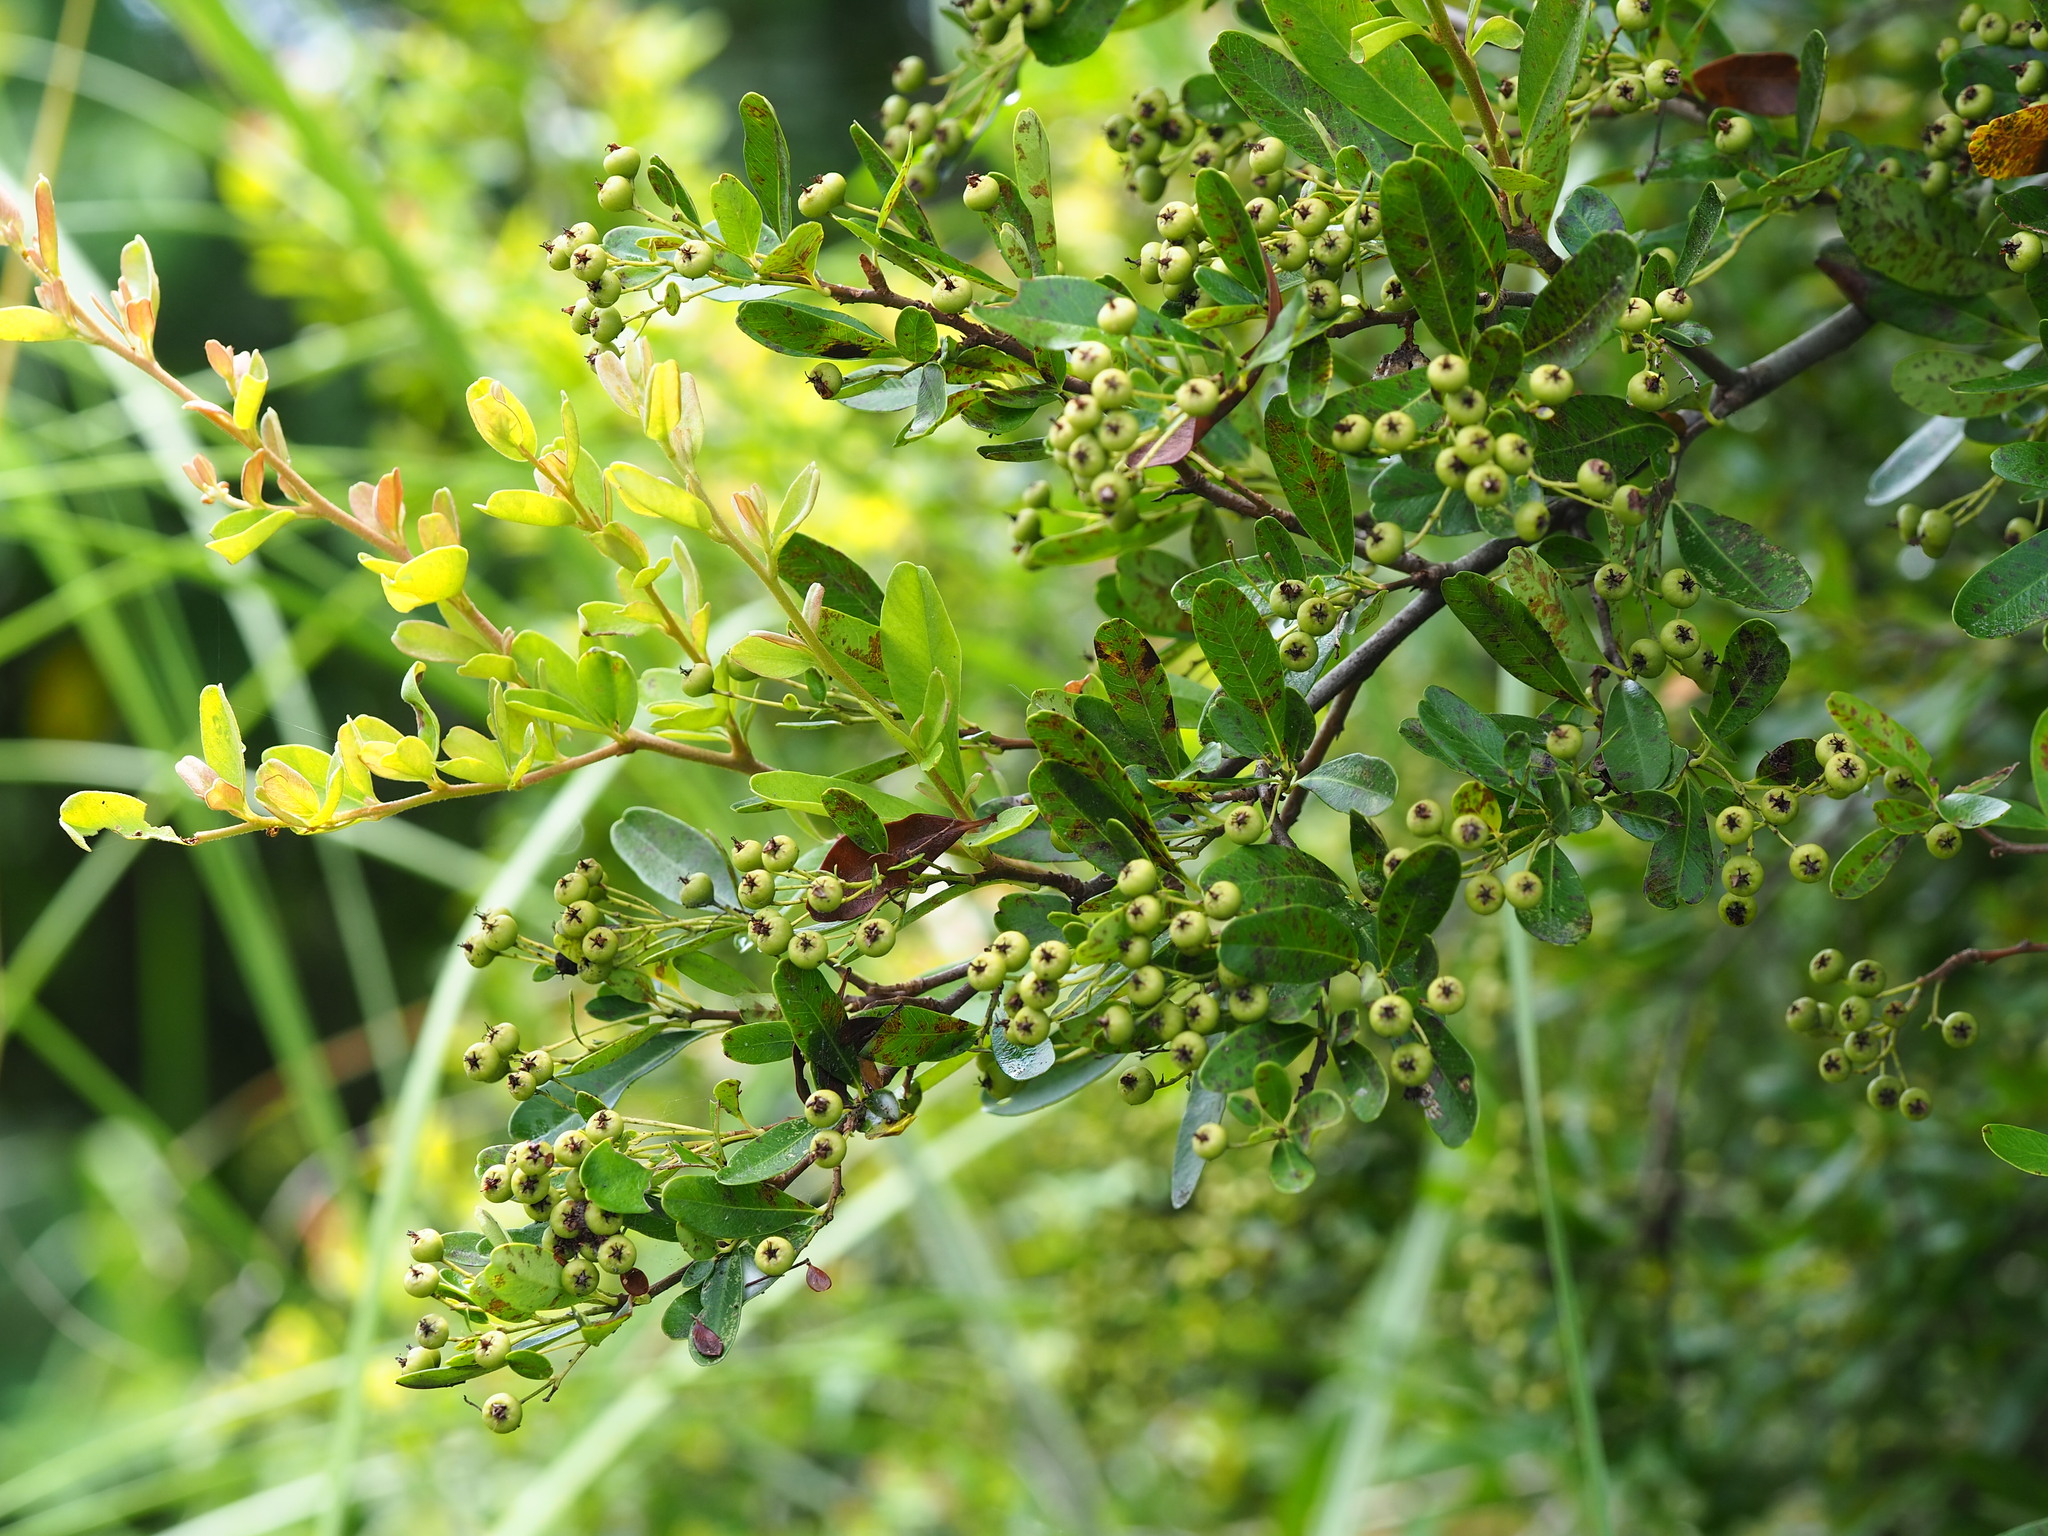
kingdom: Plantae
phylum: Tracheophyta
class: Magnoliopsida
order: Rosales
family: Rosaceae
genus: Pyracantha
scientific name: Pyracantha koidzumii
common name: Formosa firethorn
